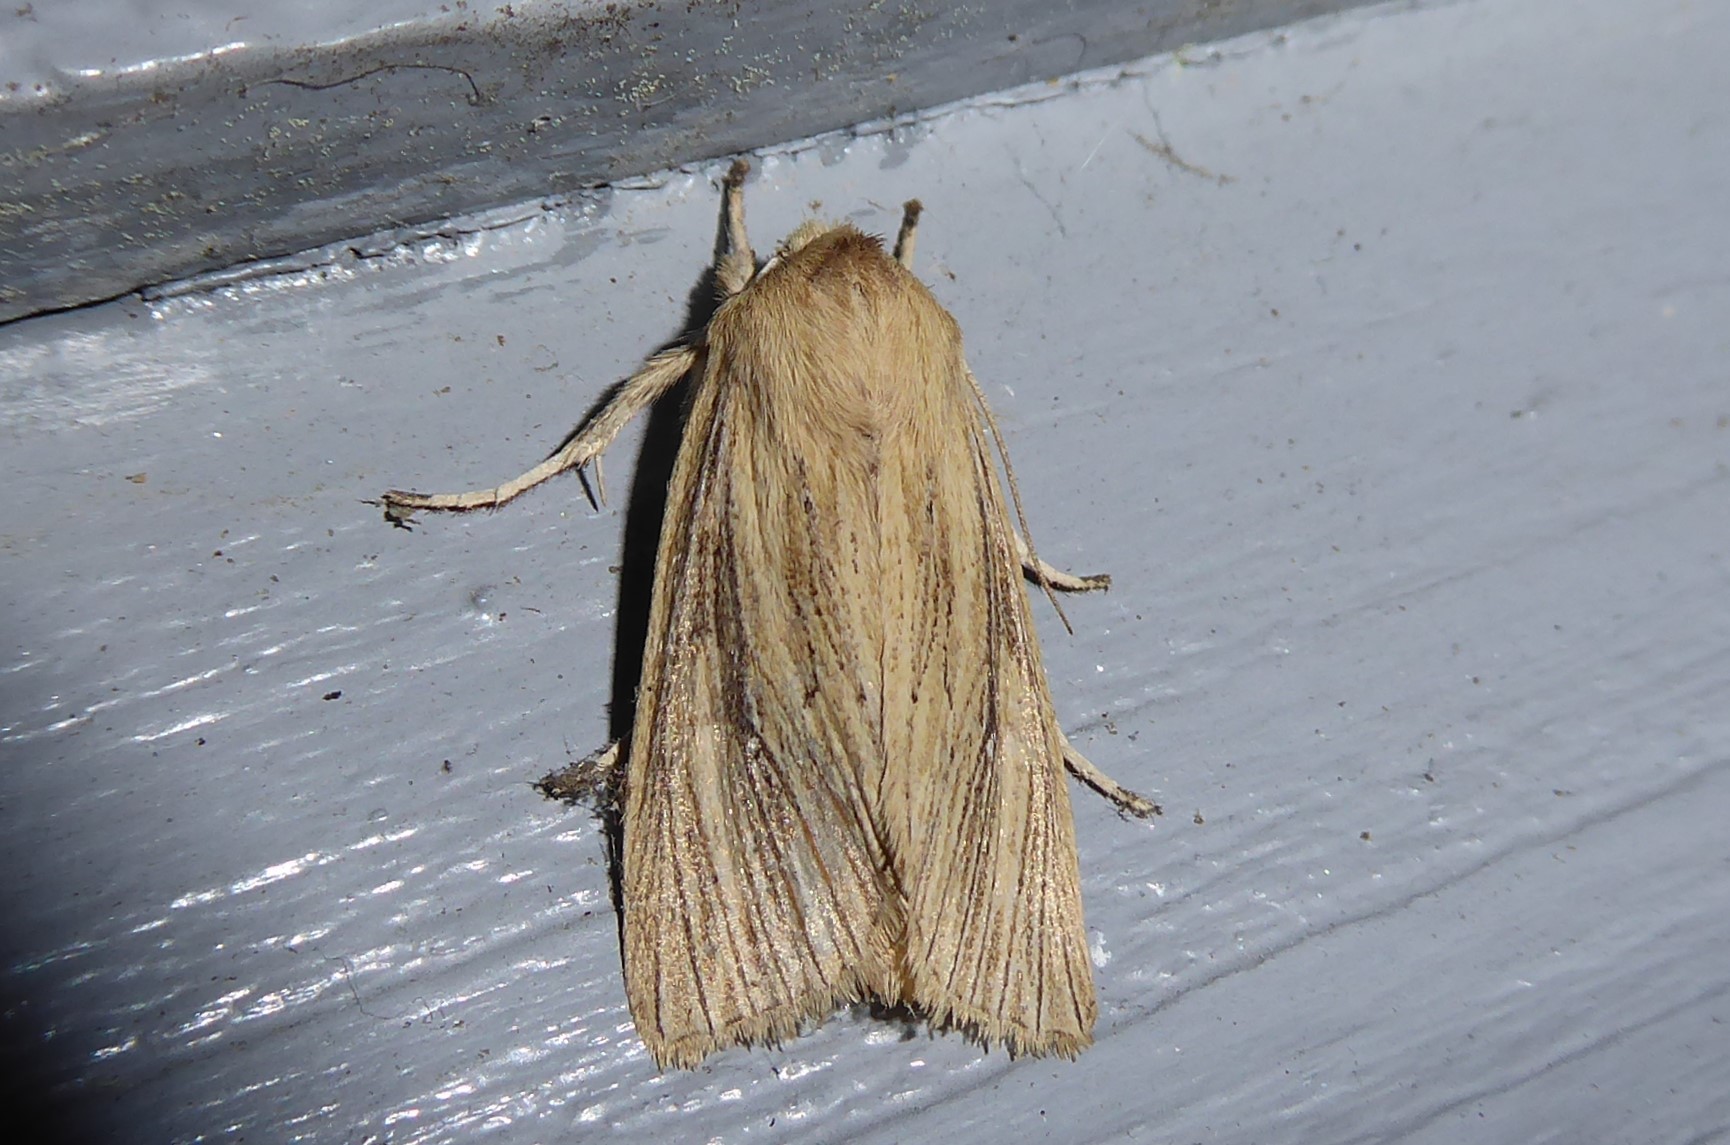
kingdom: Animalia
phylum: Arthropoda
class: Insecta
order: Lepidoptera
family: Noctuidae
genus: Ichneutica
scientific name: Ichneutica arotis
